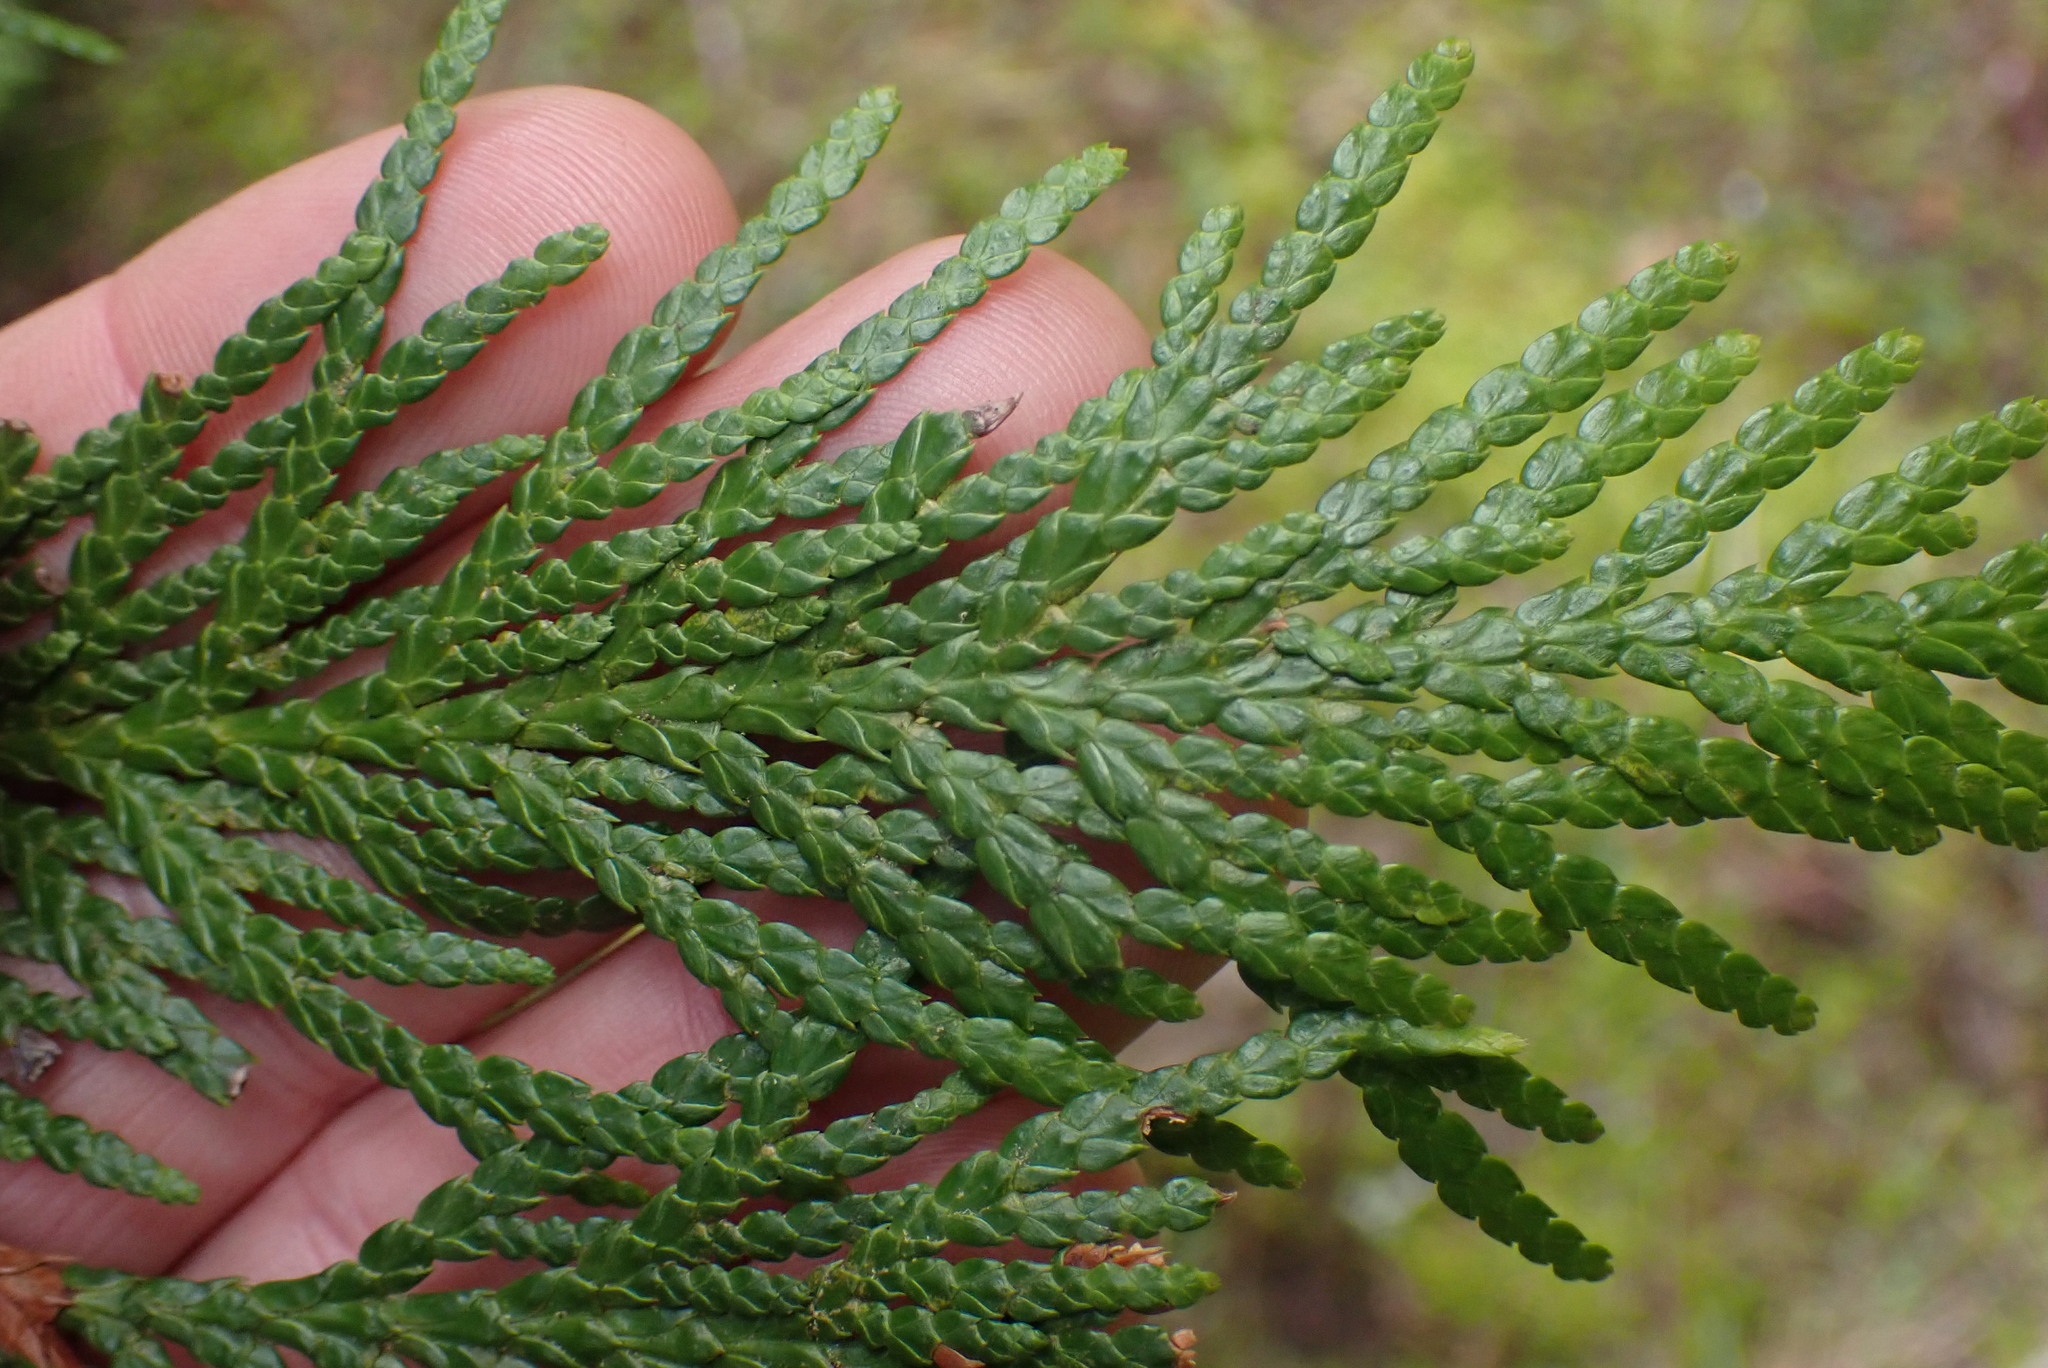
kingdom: Plantae
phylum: Tracheophyta
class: Pinopsida
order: Pinales
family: Cupressaceae
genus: Thuja
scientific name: Thuja plicata
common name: Western red-cedar
